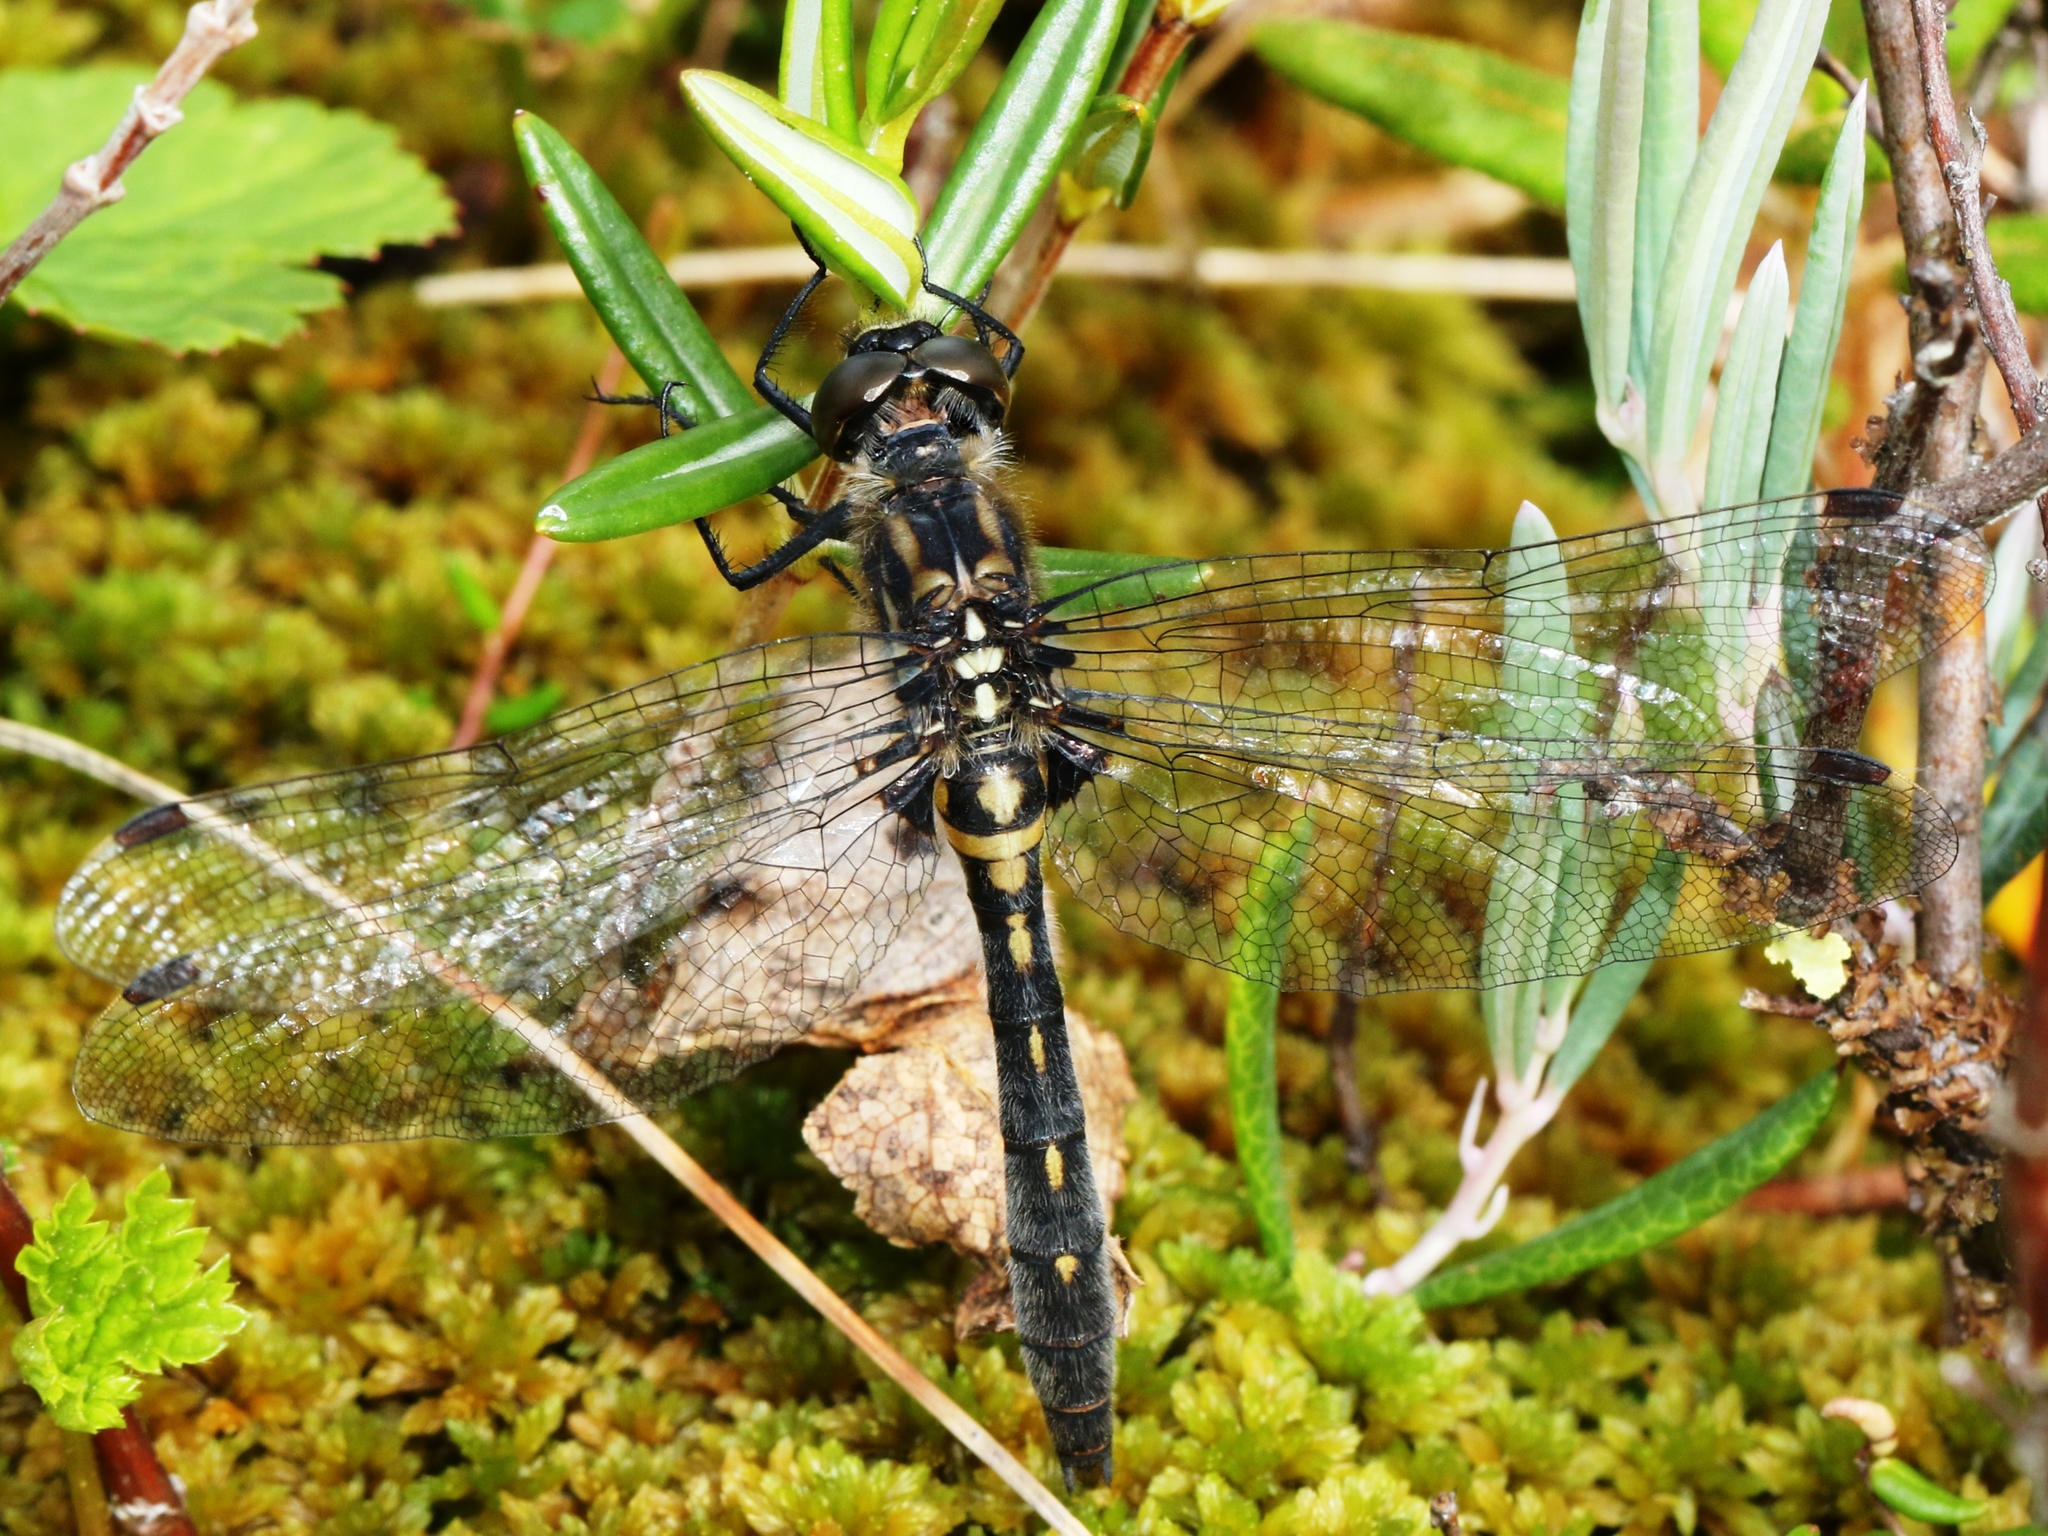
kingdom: Animalia
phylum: Arthropoda
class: Insecta
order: Odonata
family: Libellulidae
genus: Leucorrhinia
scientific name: Leucorrhinia glacialis
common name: Crimson-ringed whiteface
